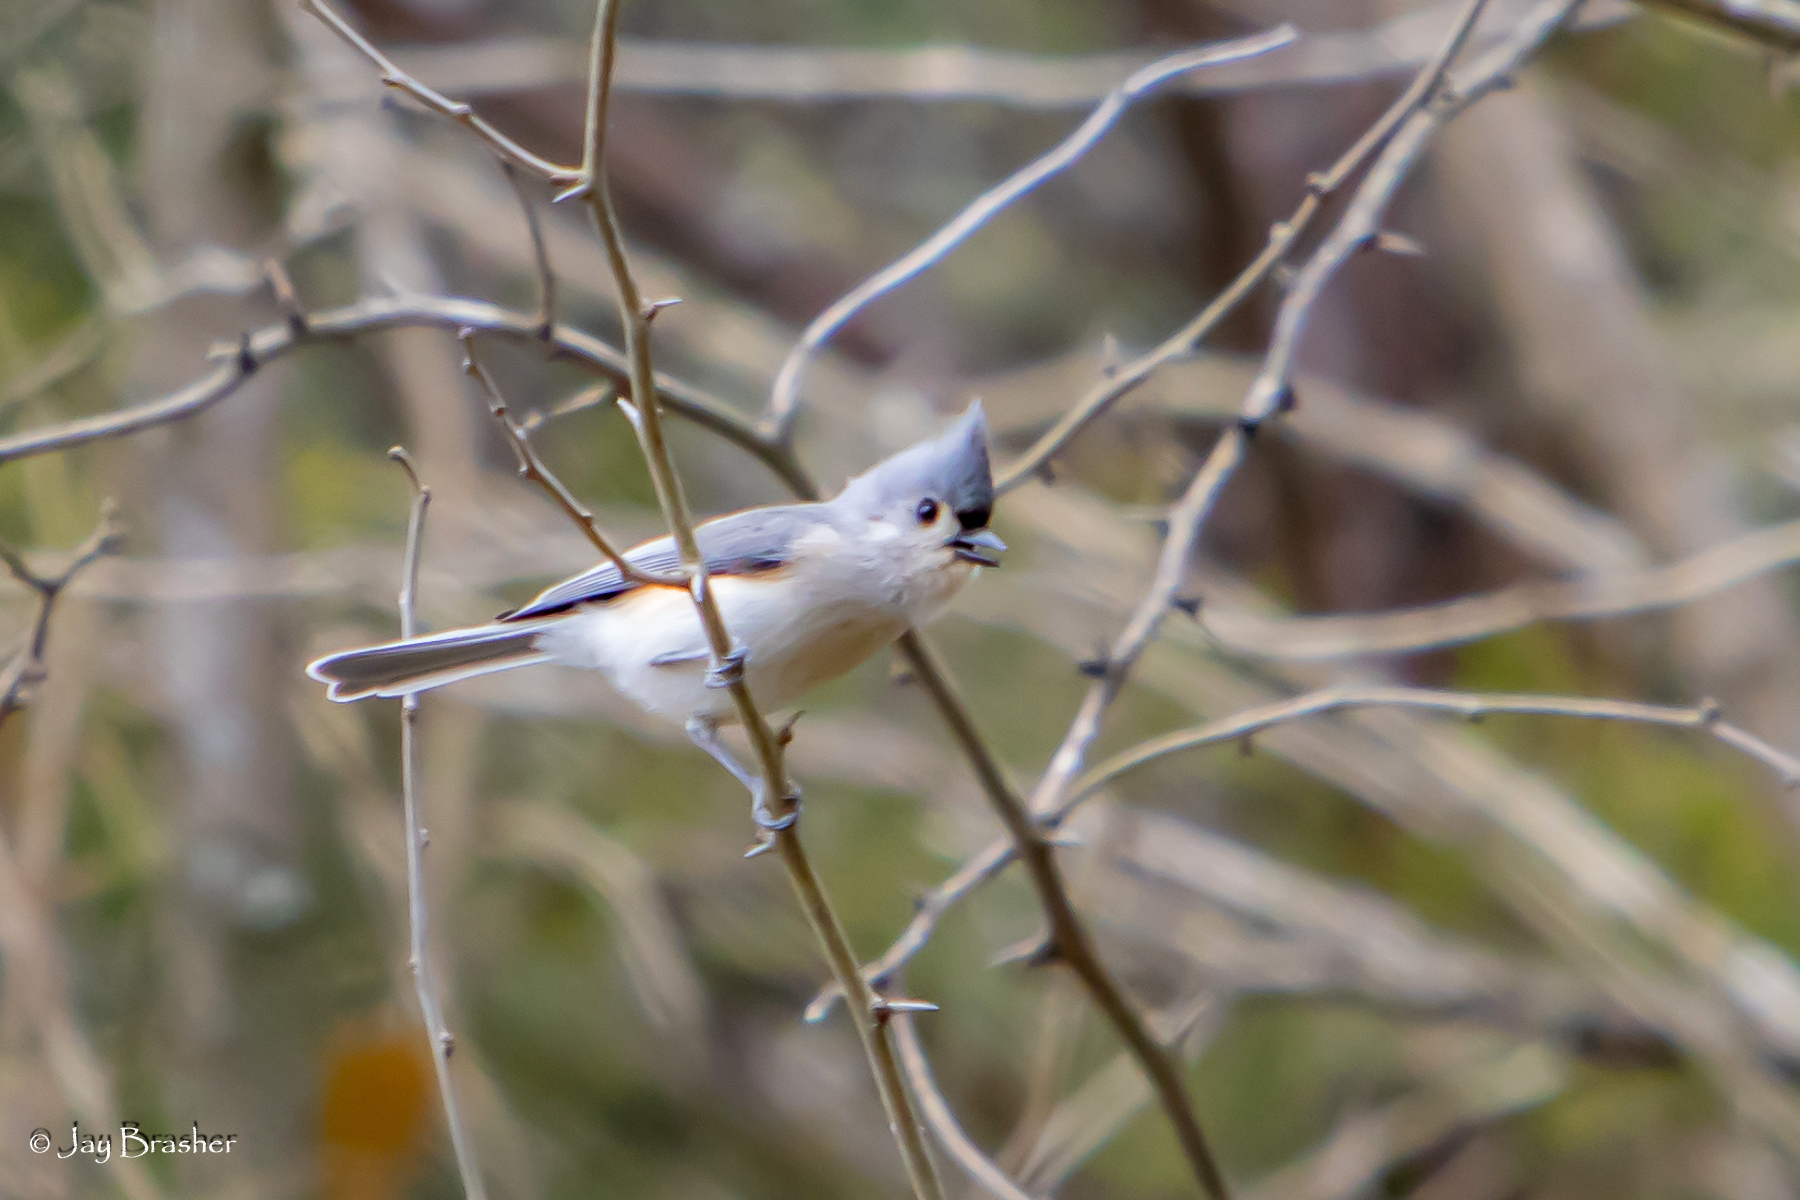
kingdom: Animalia
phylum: Chordata
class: Aves
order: Passeriformes
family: Paridae
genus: Baeolophus
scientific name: Baeolophus bicolor
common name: Tufted titmouse
